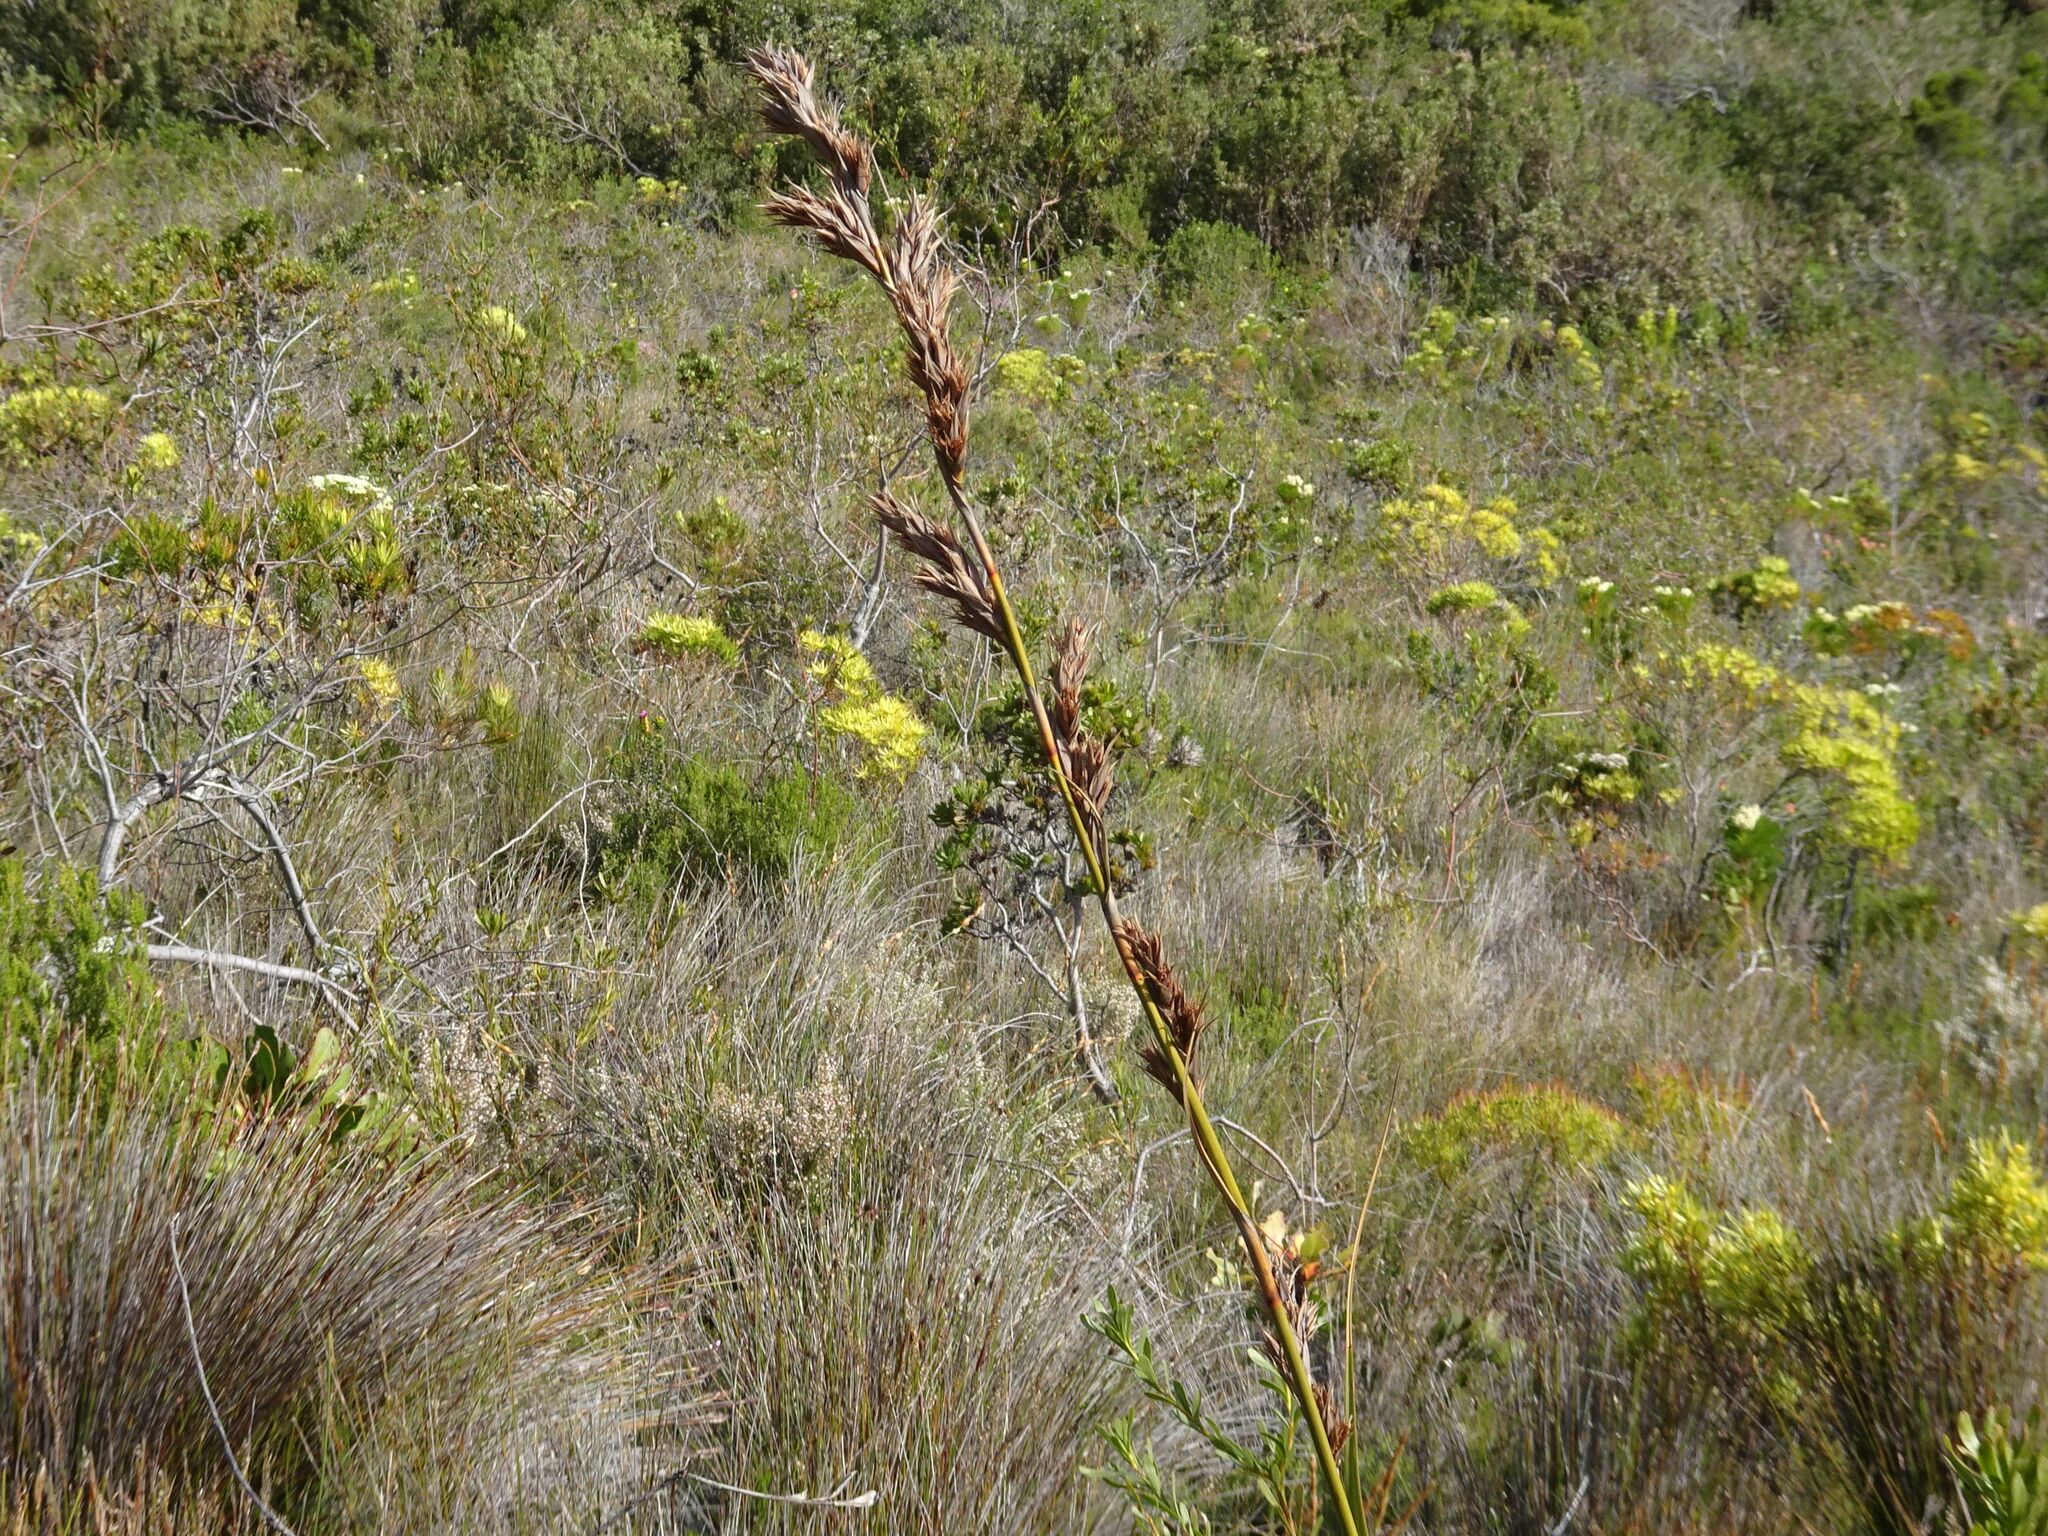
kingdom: Plantae
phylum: Tracheophyta
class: Liliopsida
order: Poales
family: Cyperaceae
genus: Tetraria
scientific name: Tetraria thermalis
